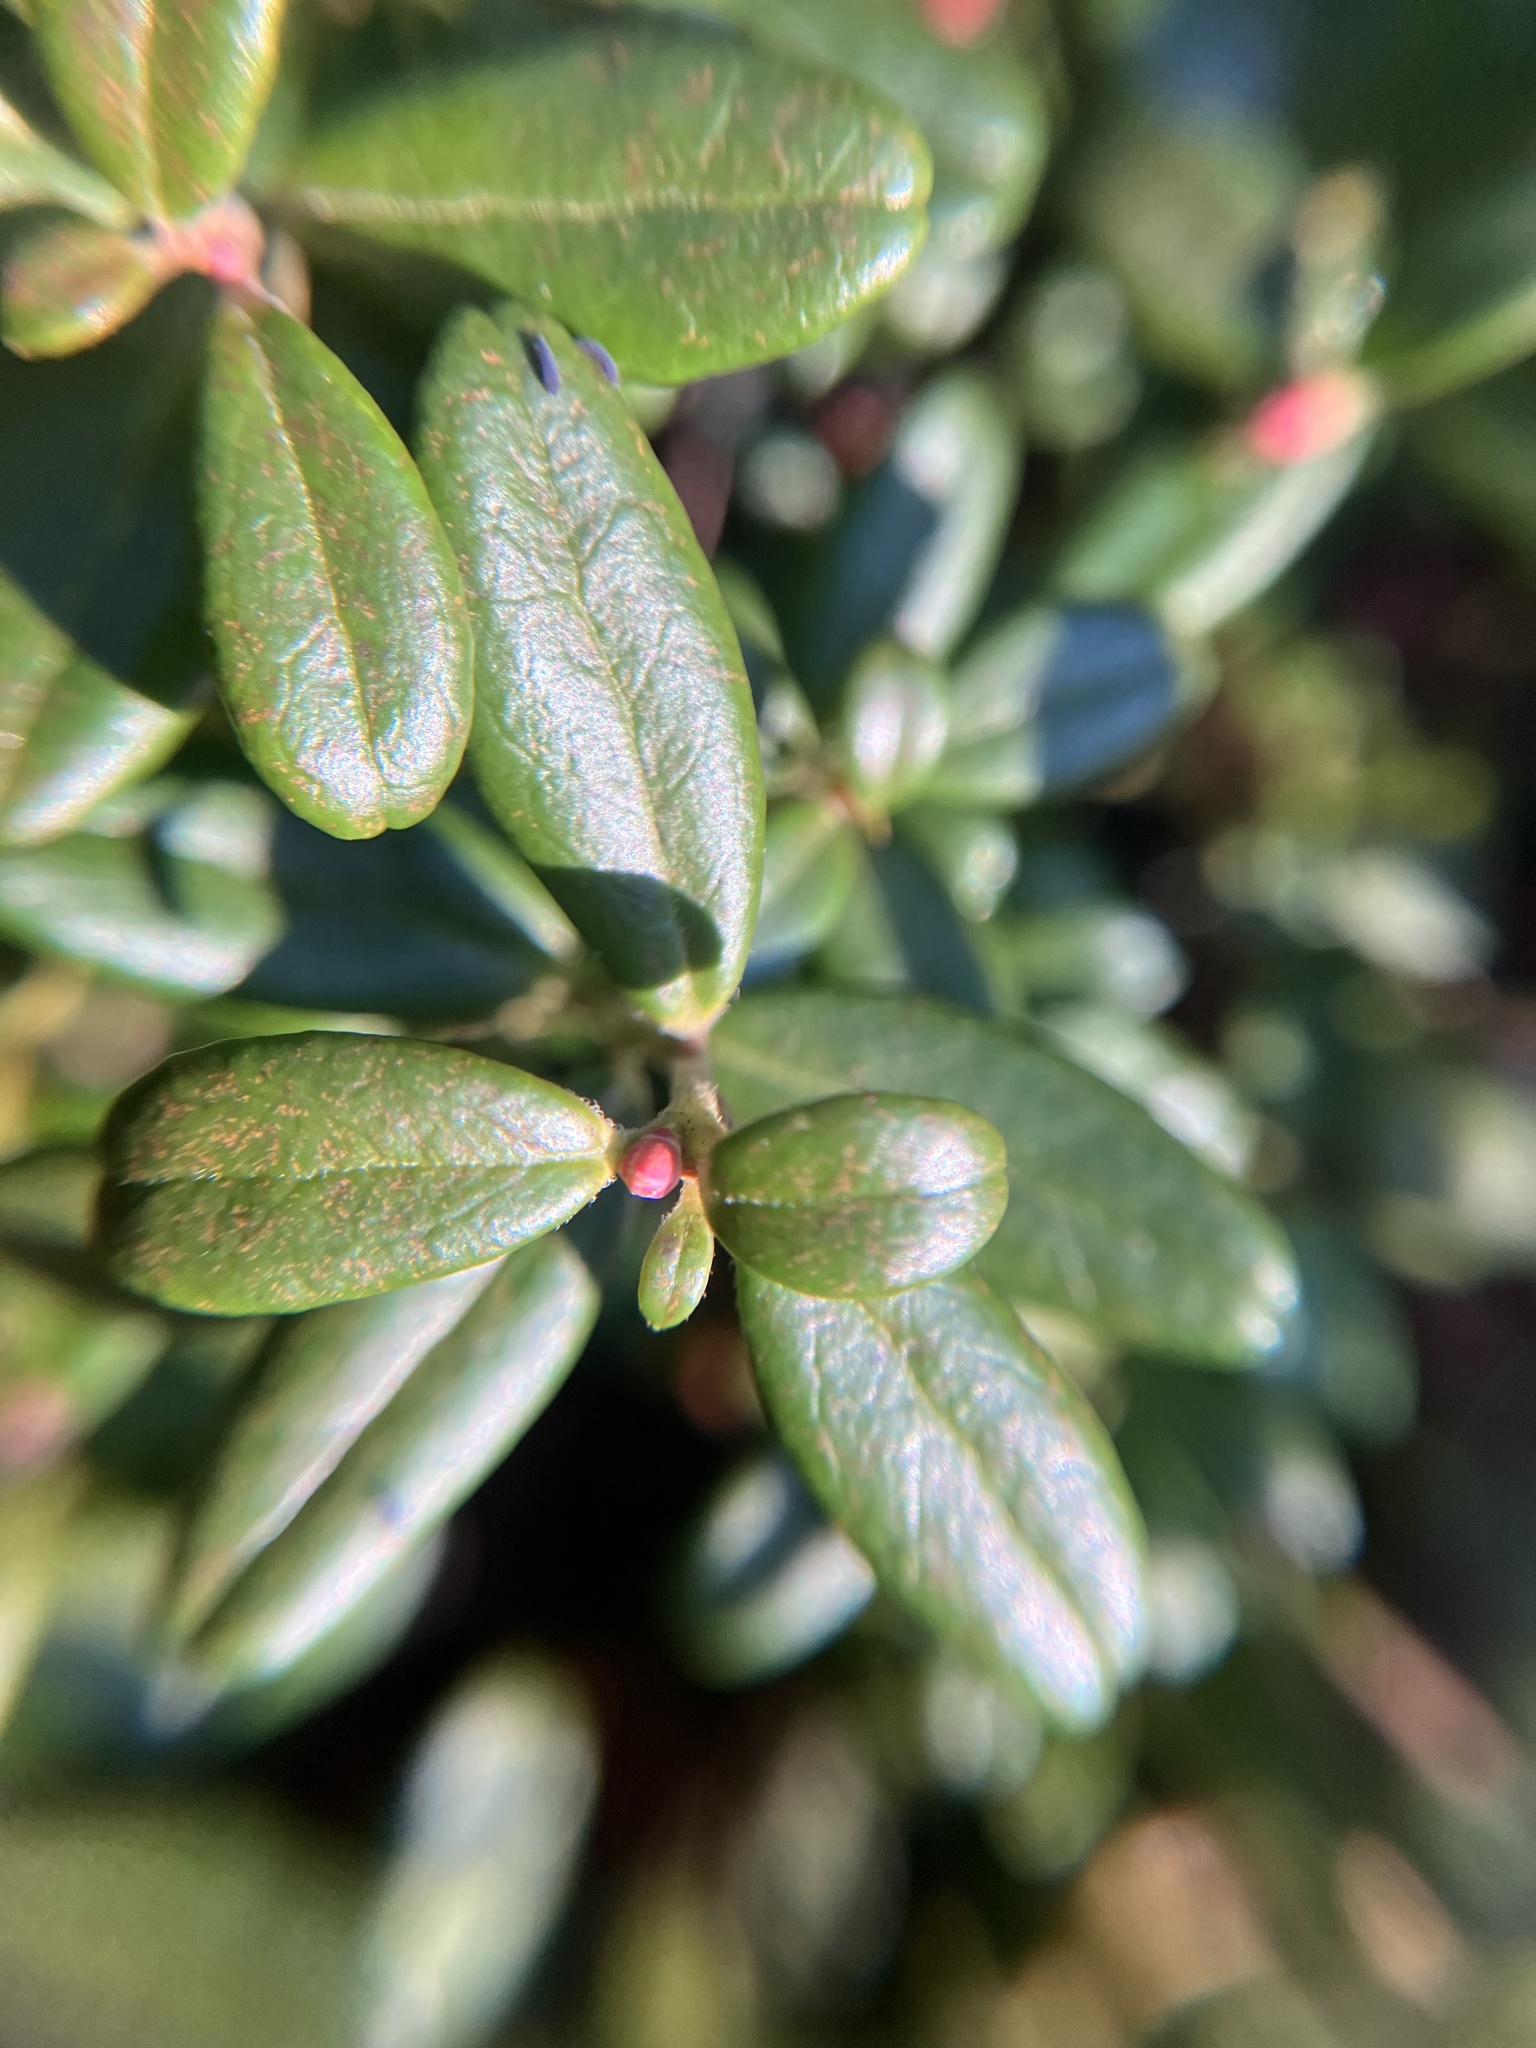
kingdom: Plantae
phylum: Tracheophyta
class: Magnoliopsida
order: Ericales
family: Ericaceae
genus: Vaccinium
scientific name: Vaccinium vitis-idaea
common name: Cowberry
